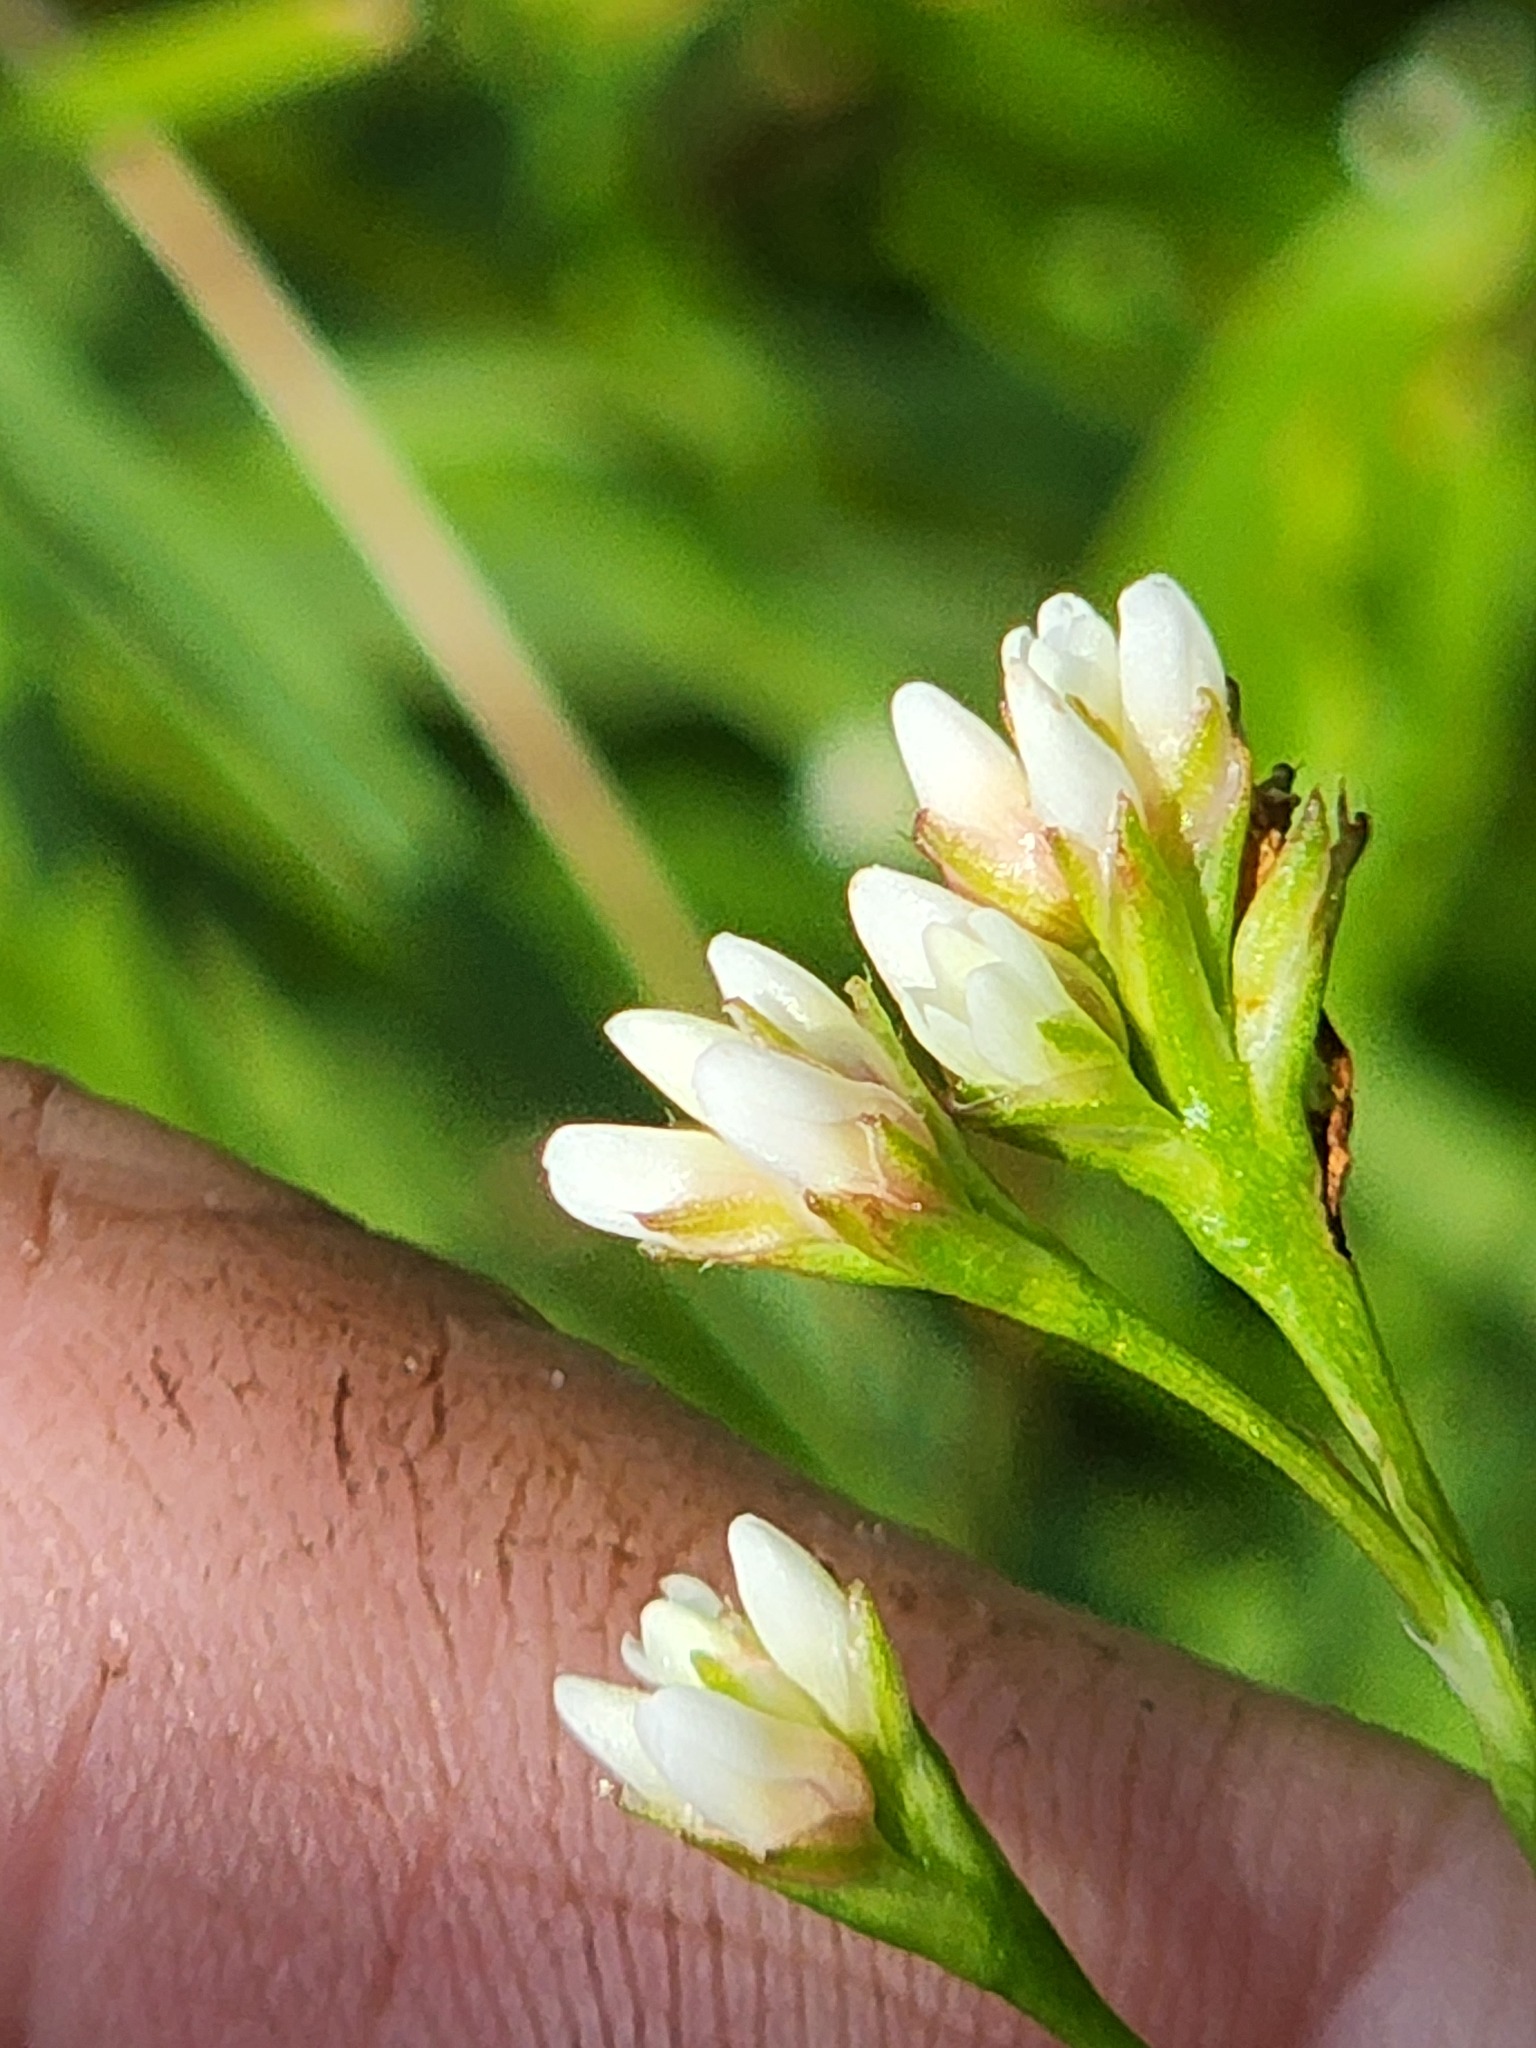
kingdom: Plantae
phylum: Tracheophyta
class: Magnoliopsida
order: Caryophyllales
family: Polygonaceae
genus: Persicaria
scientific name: Persicaria sagittata
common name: American tearthumb
